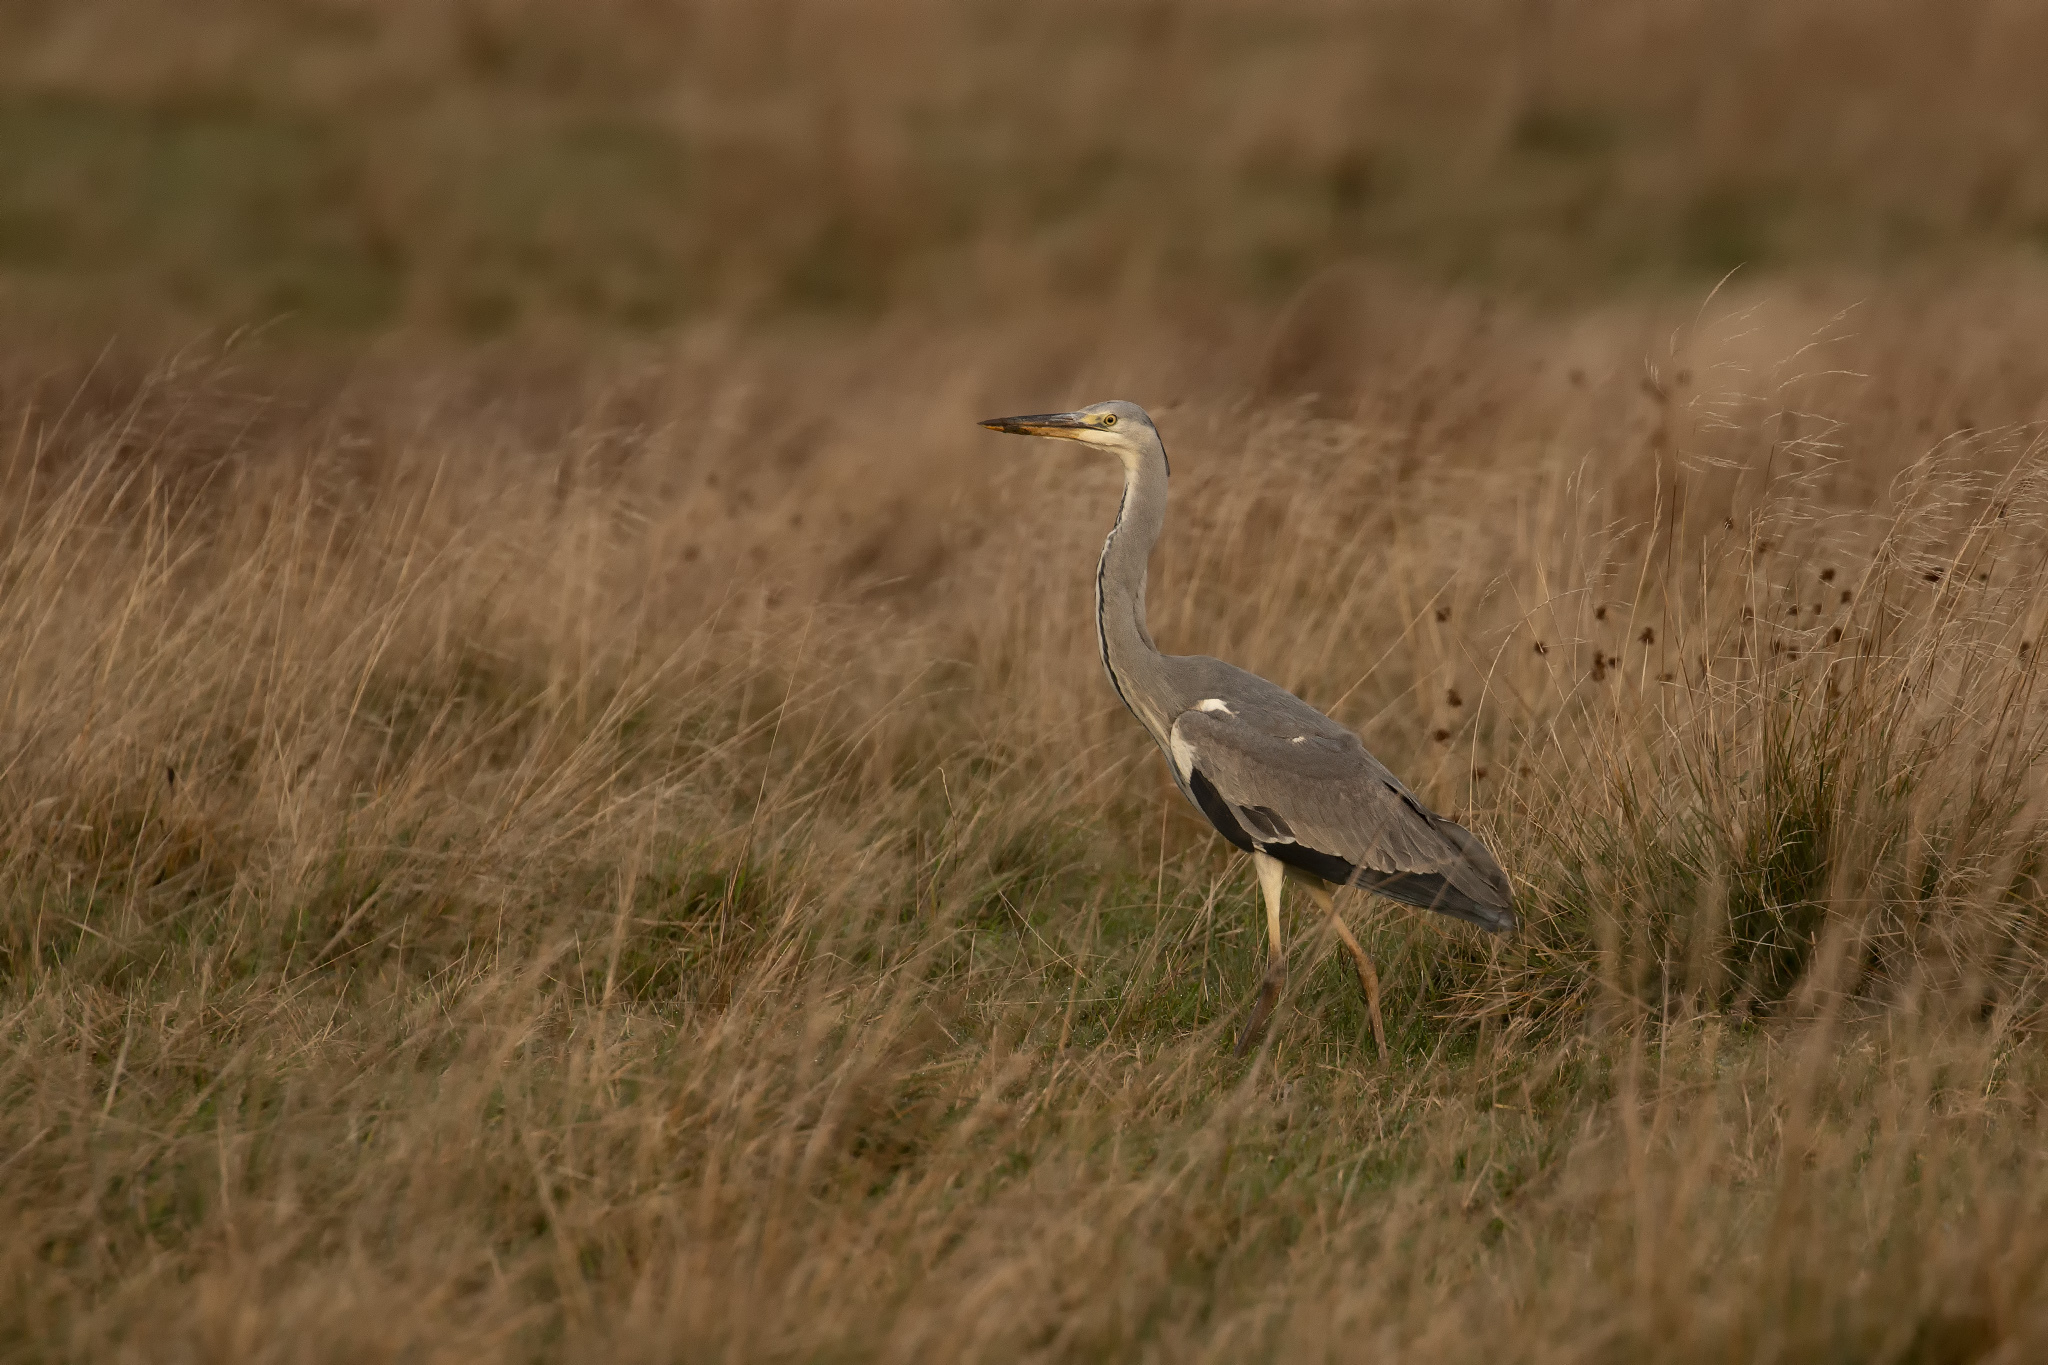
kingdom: Animalia
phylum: Chordata
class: Aves
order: Pelecaniformes
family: Ardeidae
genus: Ardea
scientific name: Ardea cinerea
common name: Grey heron
